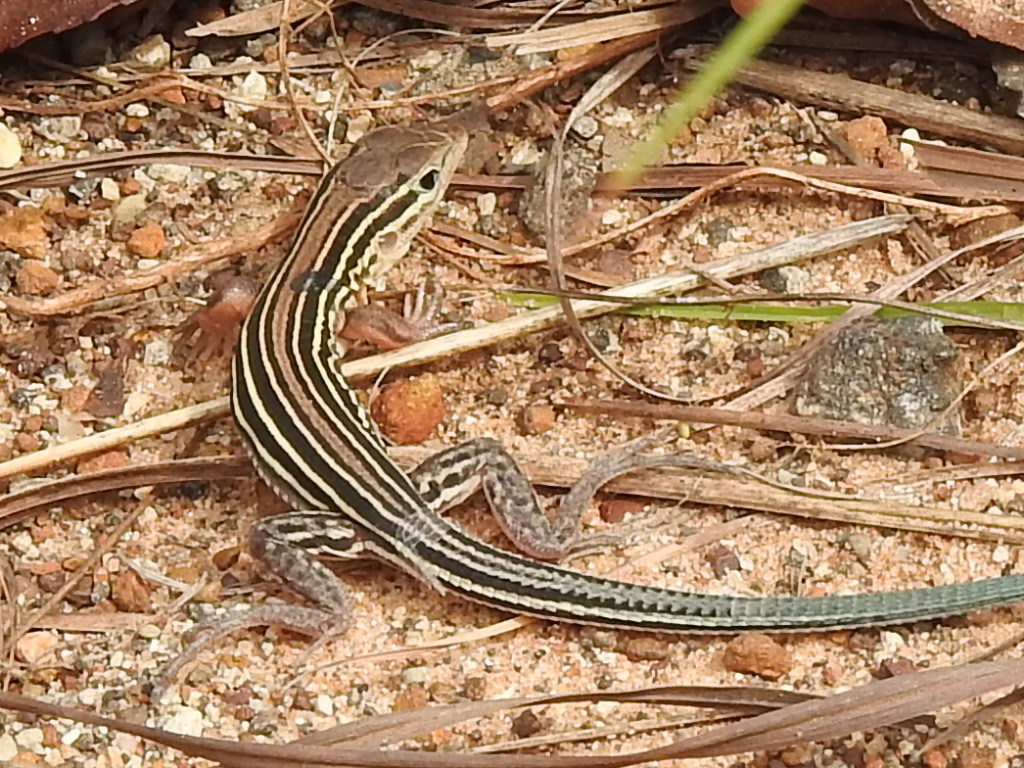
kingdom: Animalia
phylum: Chordata
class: Squamata
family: Teiidae
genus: Aspidoscelis
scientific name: Aspidoscelis sexlineatus
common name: Six-lined racerunner
